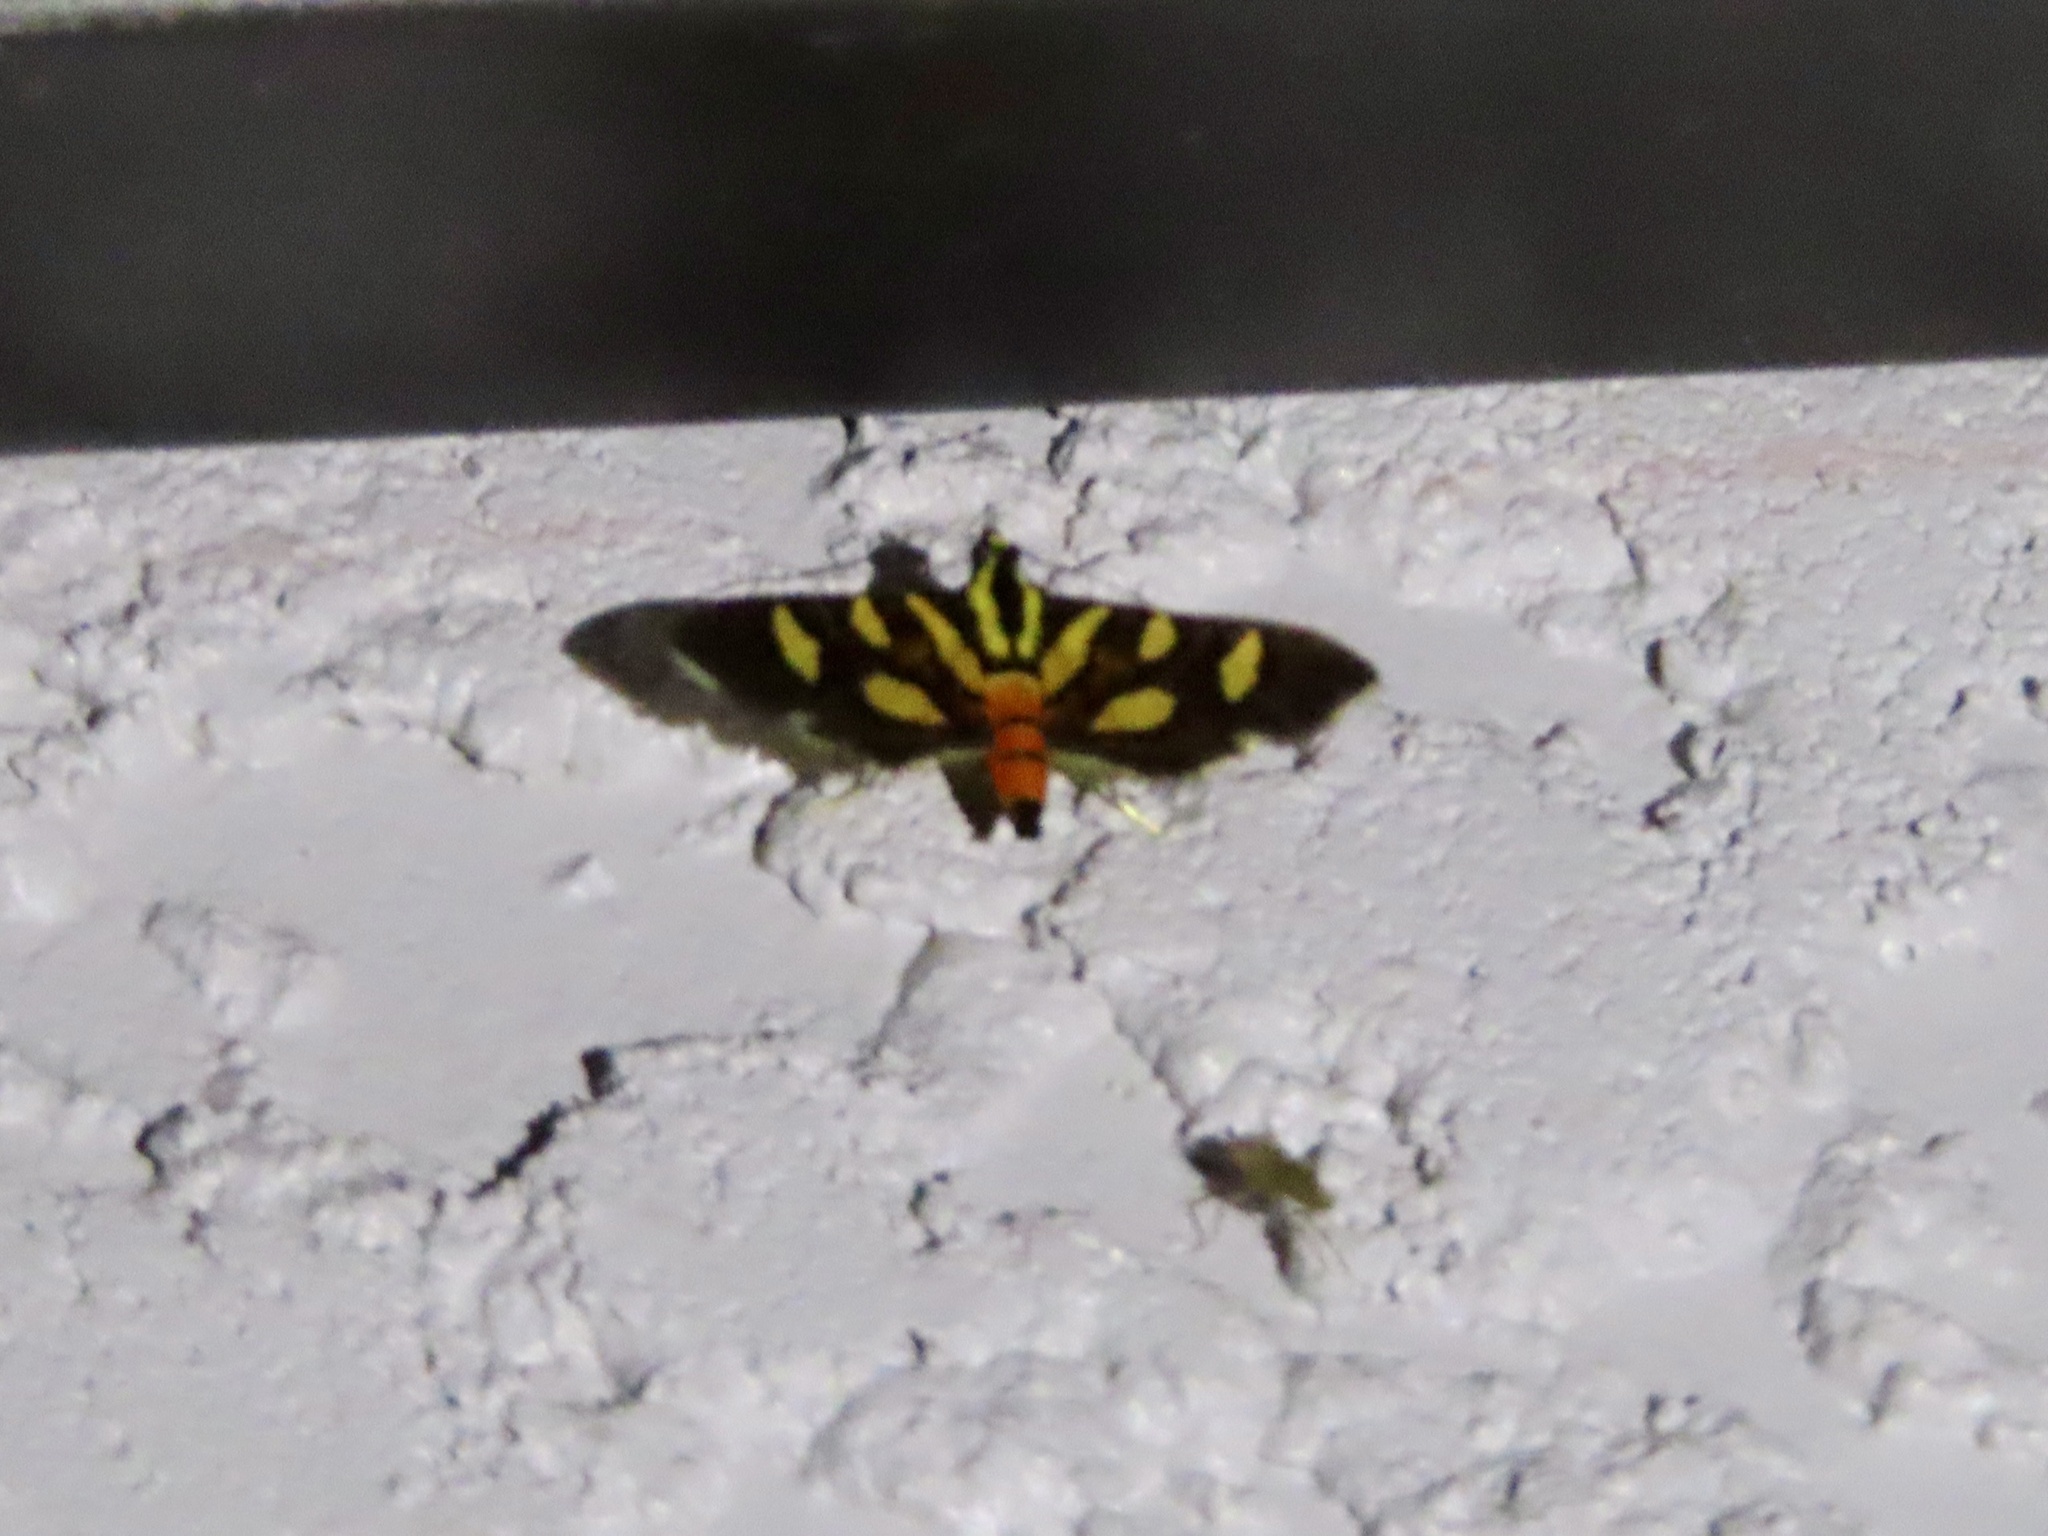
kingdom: Animalia
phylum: Arthropoda
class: Insecta
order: Lepidoptera
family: Crambidae
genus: Syngamia
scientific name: Syngamia florella
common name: Orange-spotted flower moth
